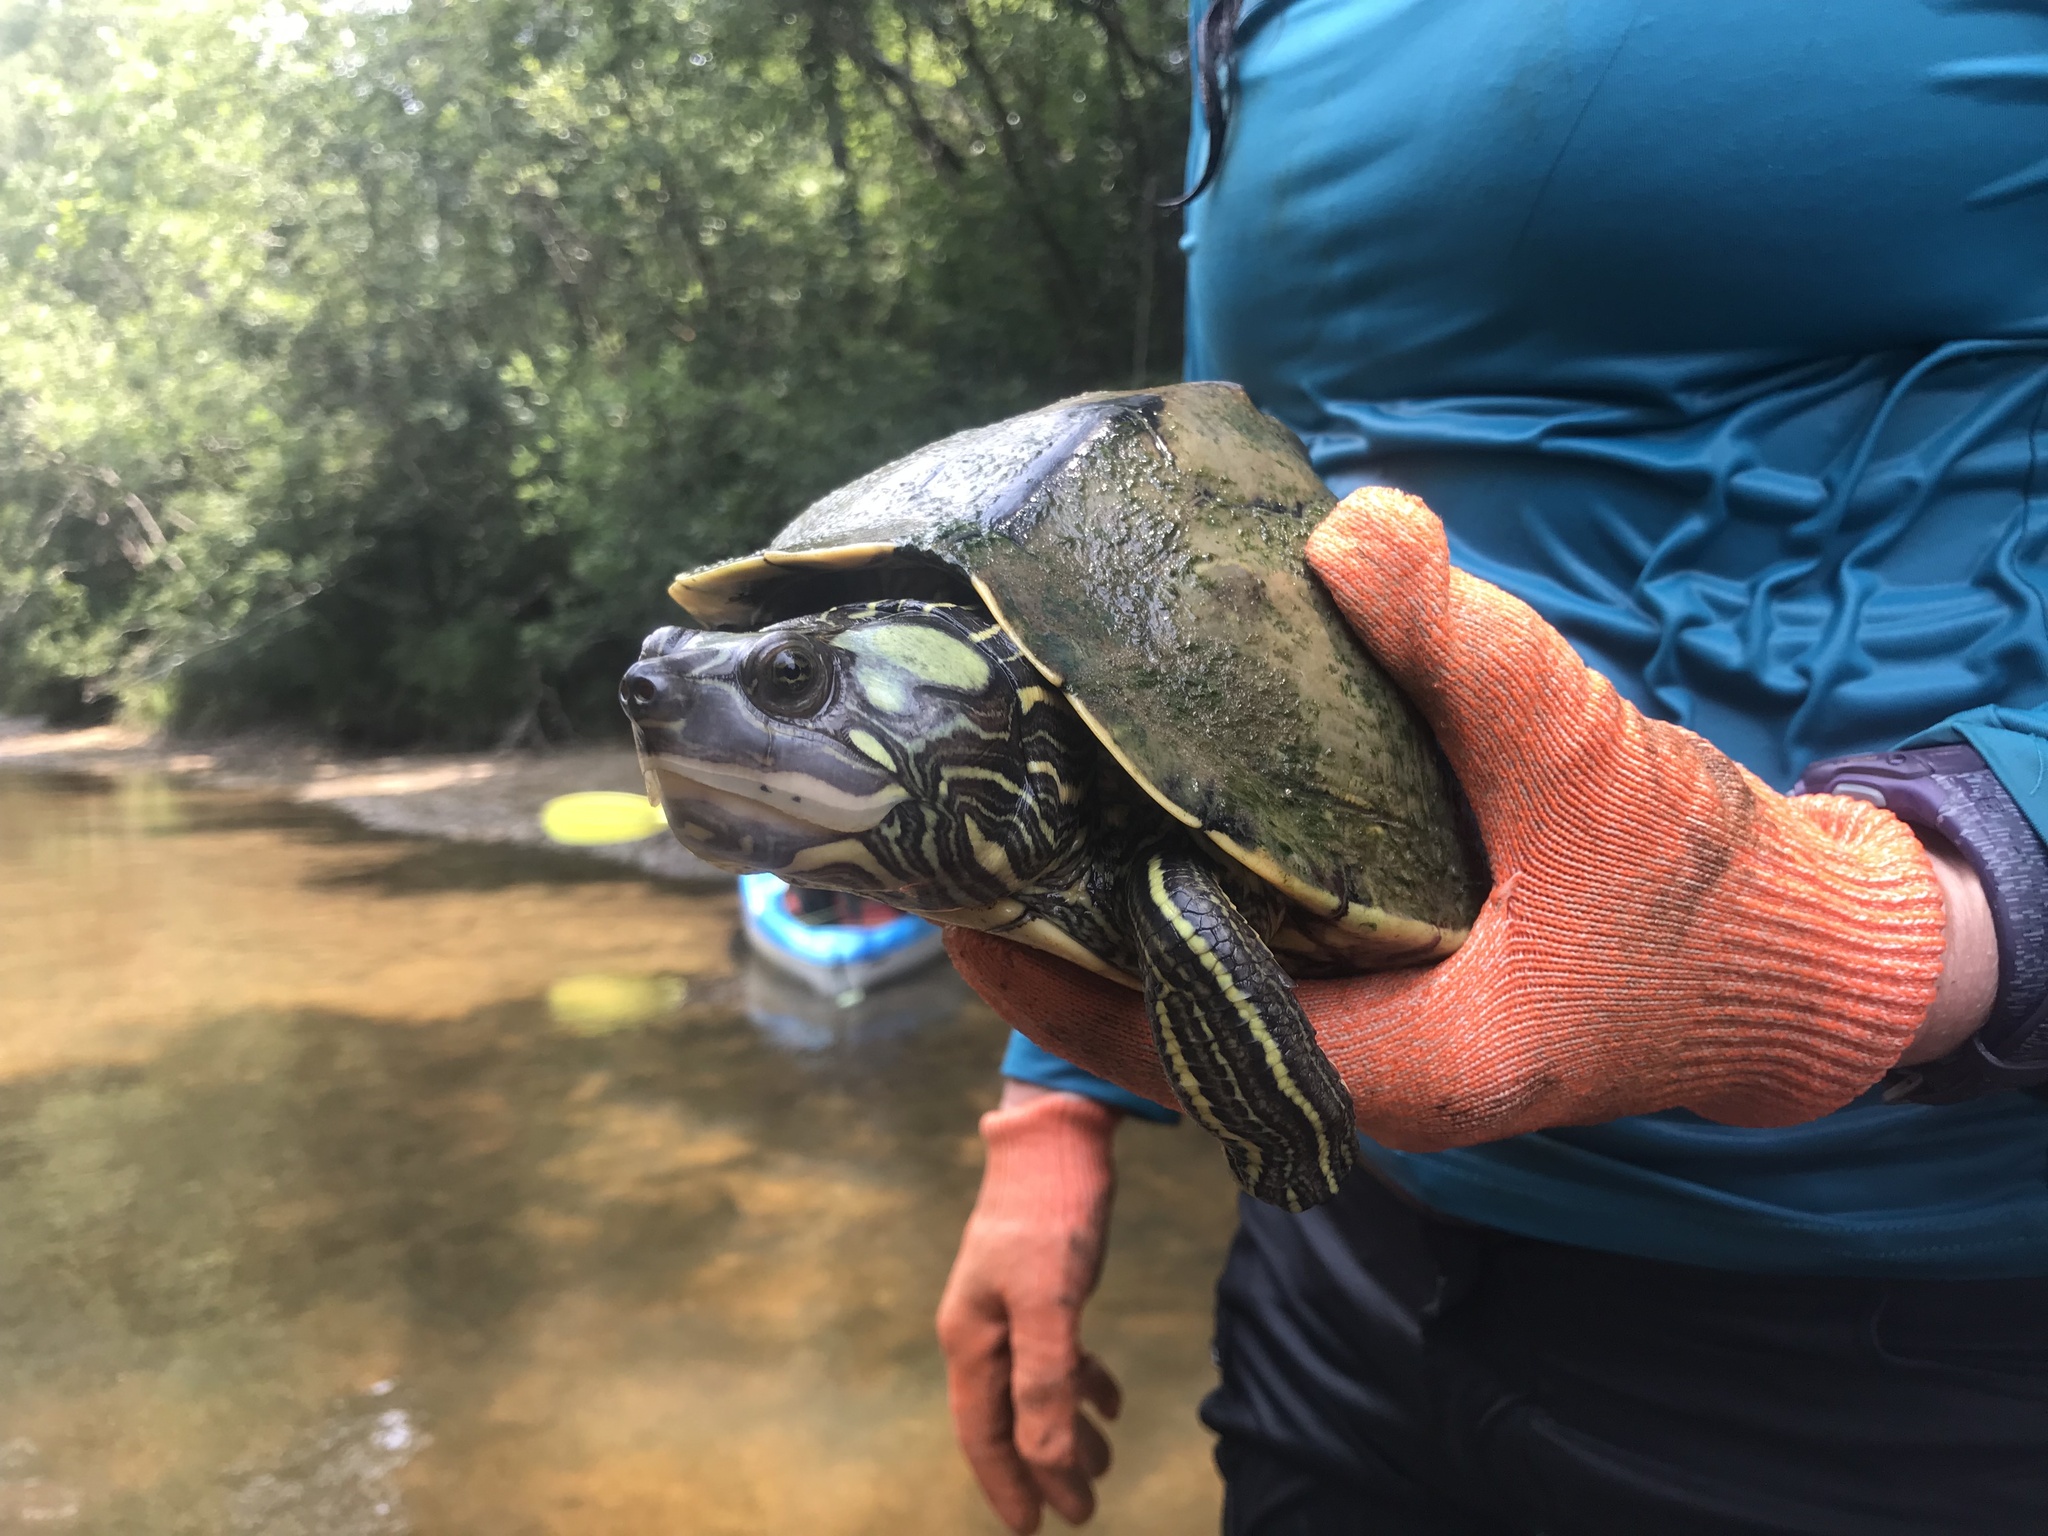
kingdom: Animalia
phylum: Chordata
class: Testudines
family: Emydidae
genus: Graptemys
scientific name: Graptemys ernsti
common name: Escambia map turtle
